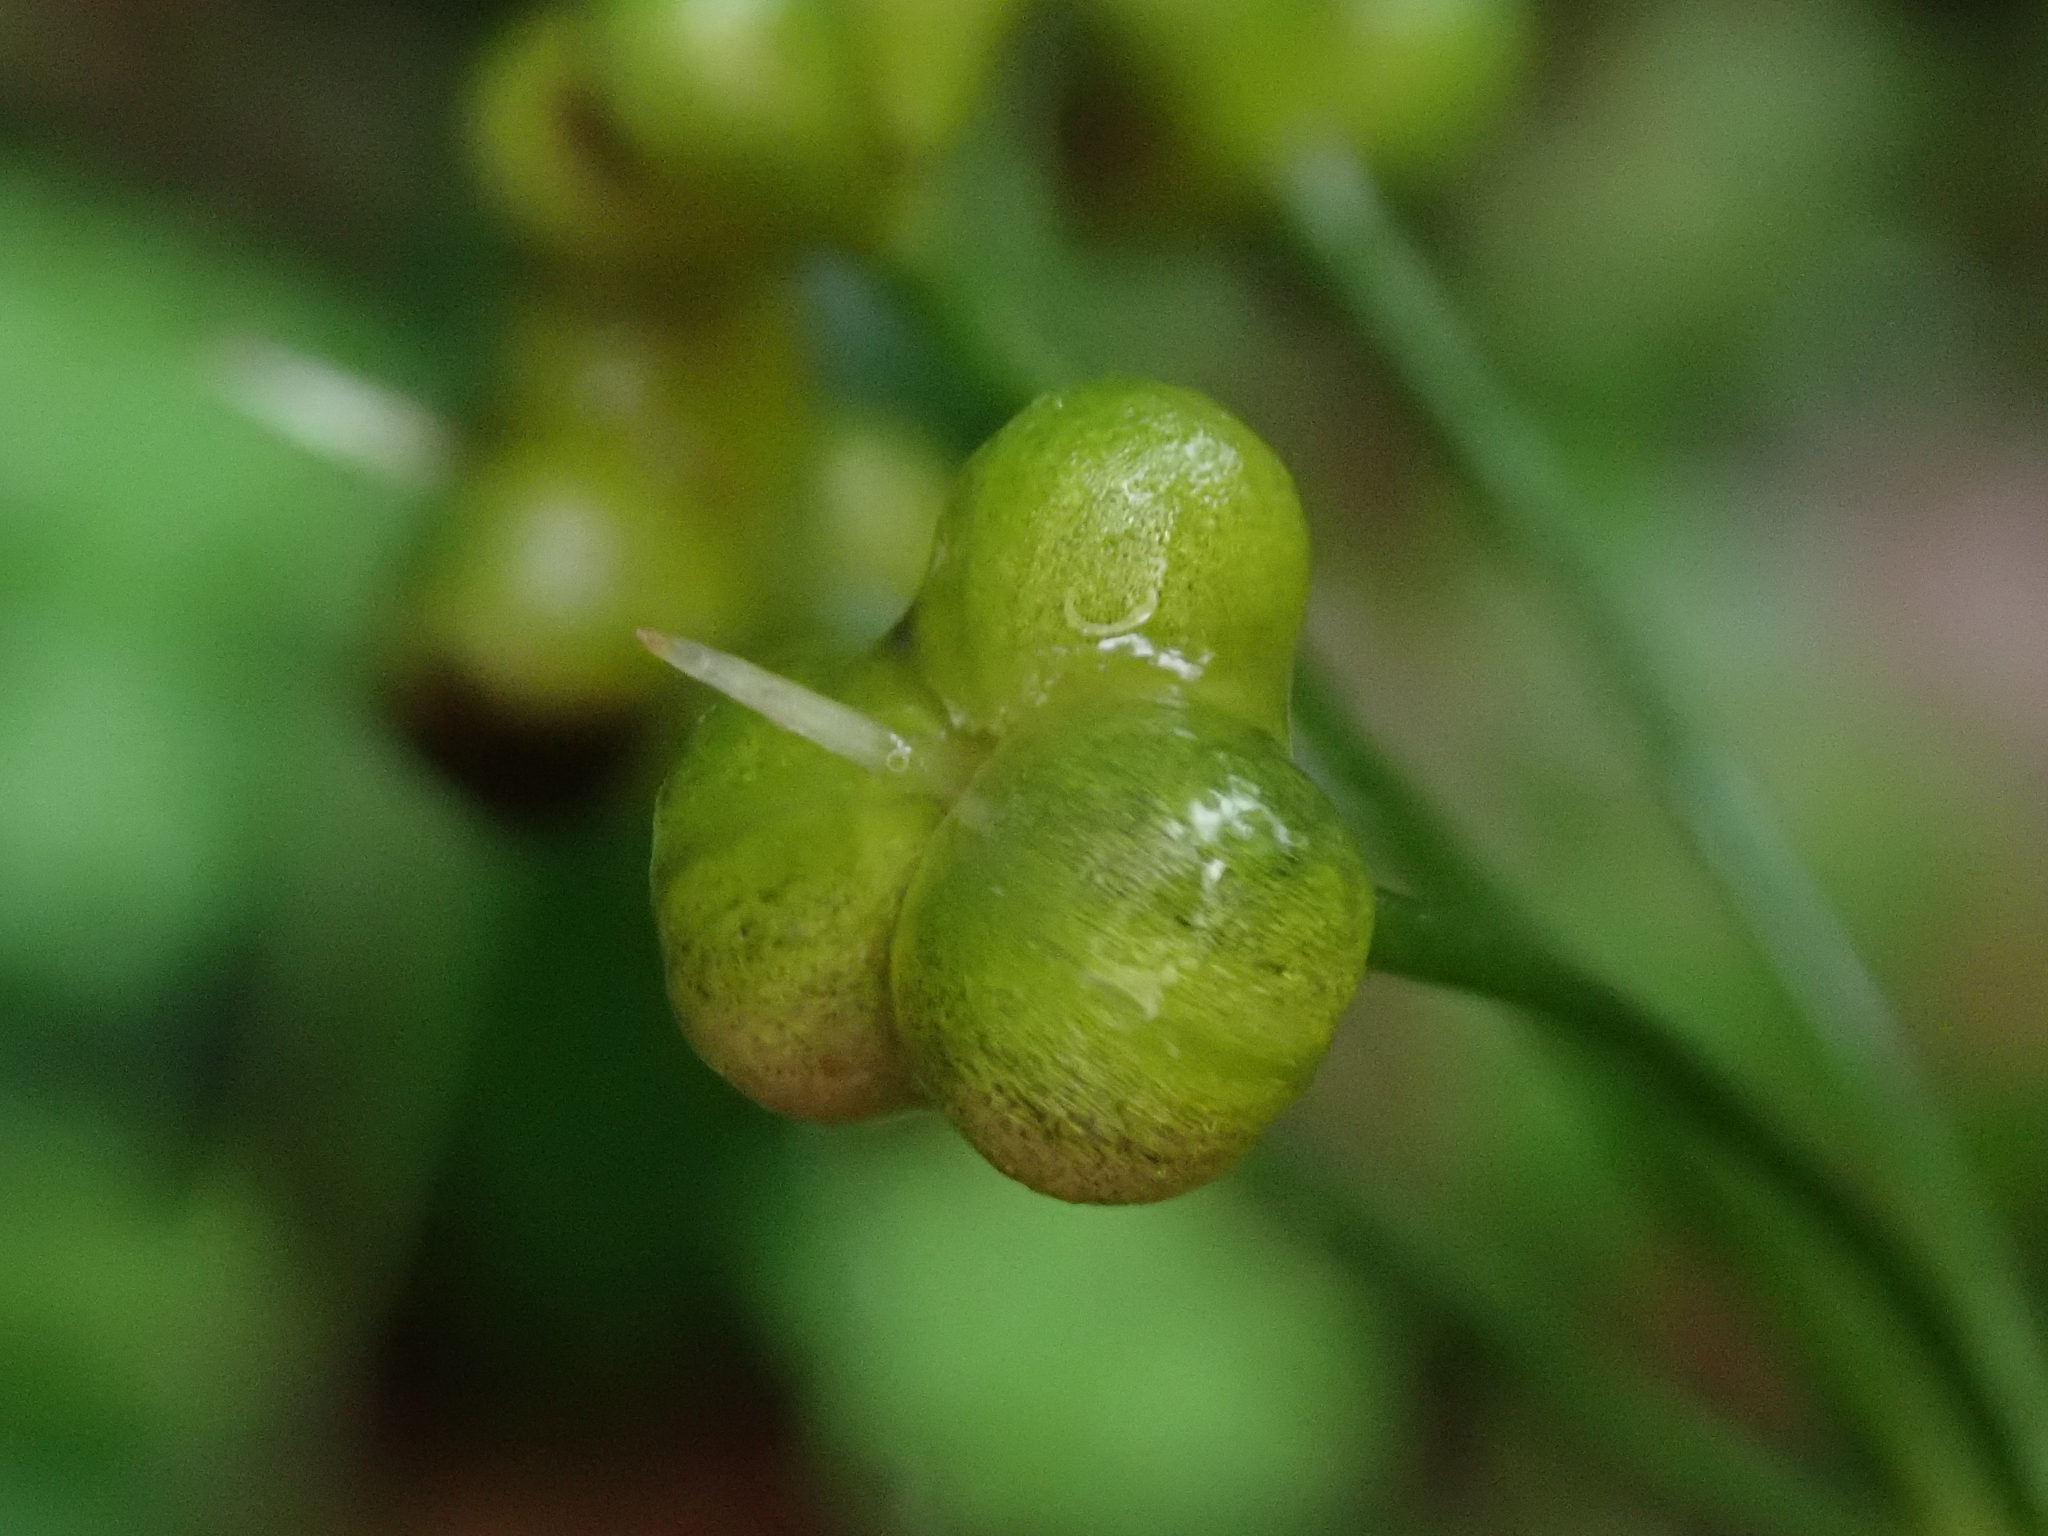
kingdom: Plantae
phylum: Tracheophyta
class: Liliopsida
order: Asparagales
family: Amaryllidaceae
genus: Allium
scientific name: Allium ursinum
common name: Ramsons
